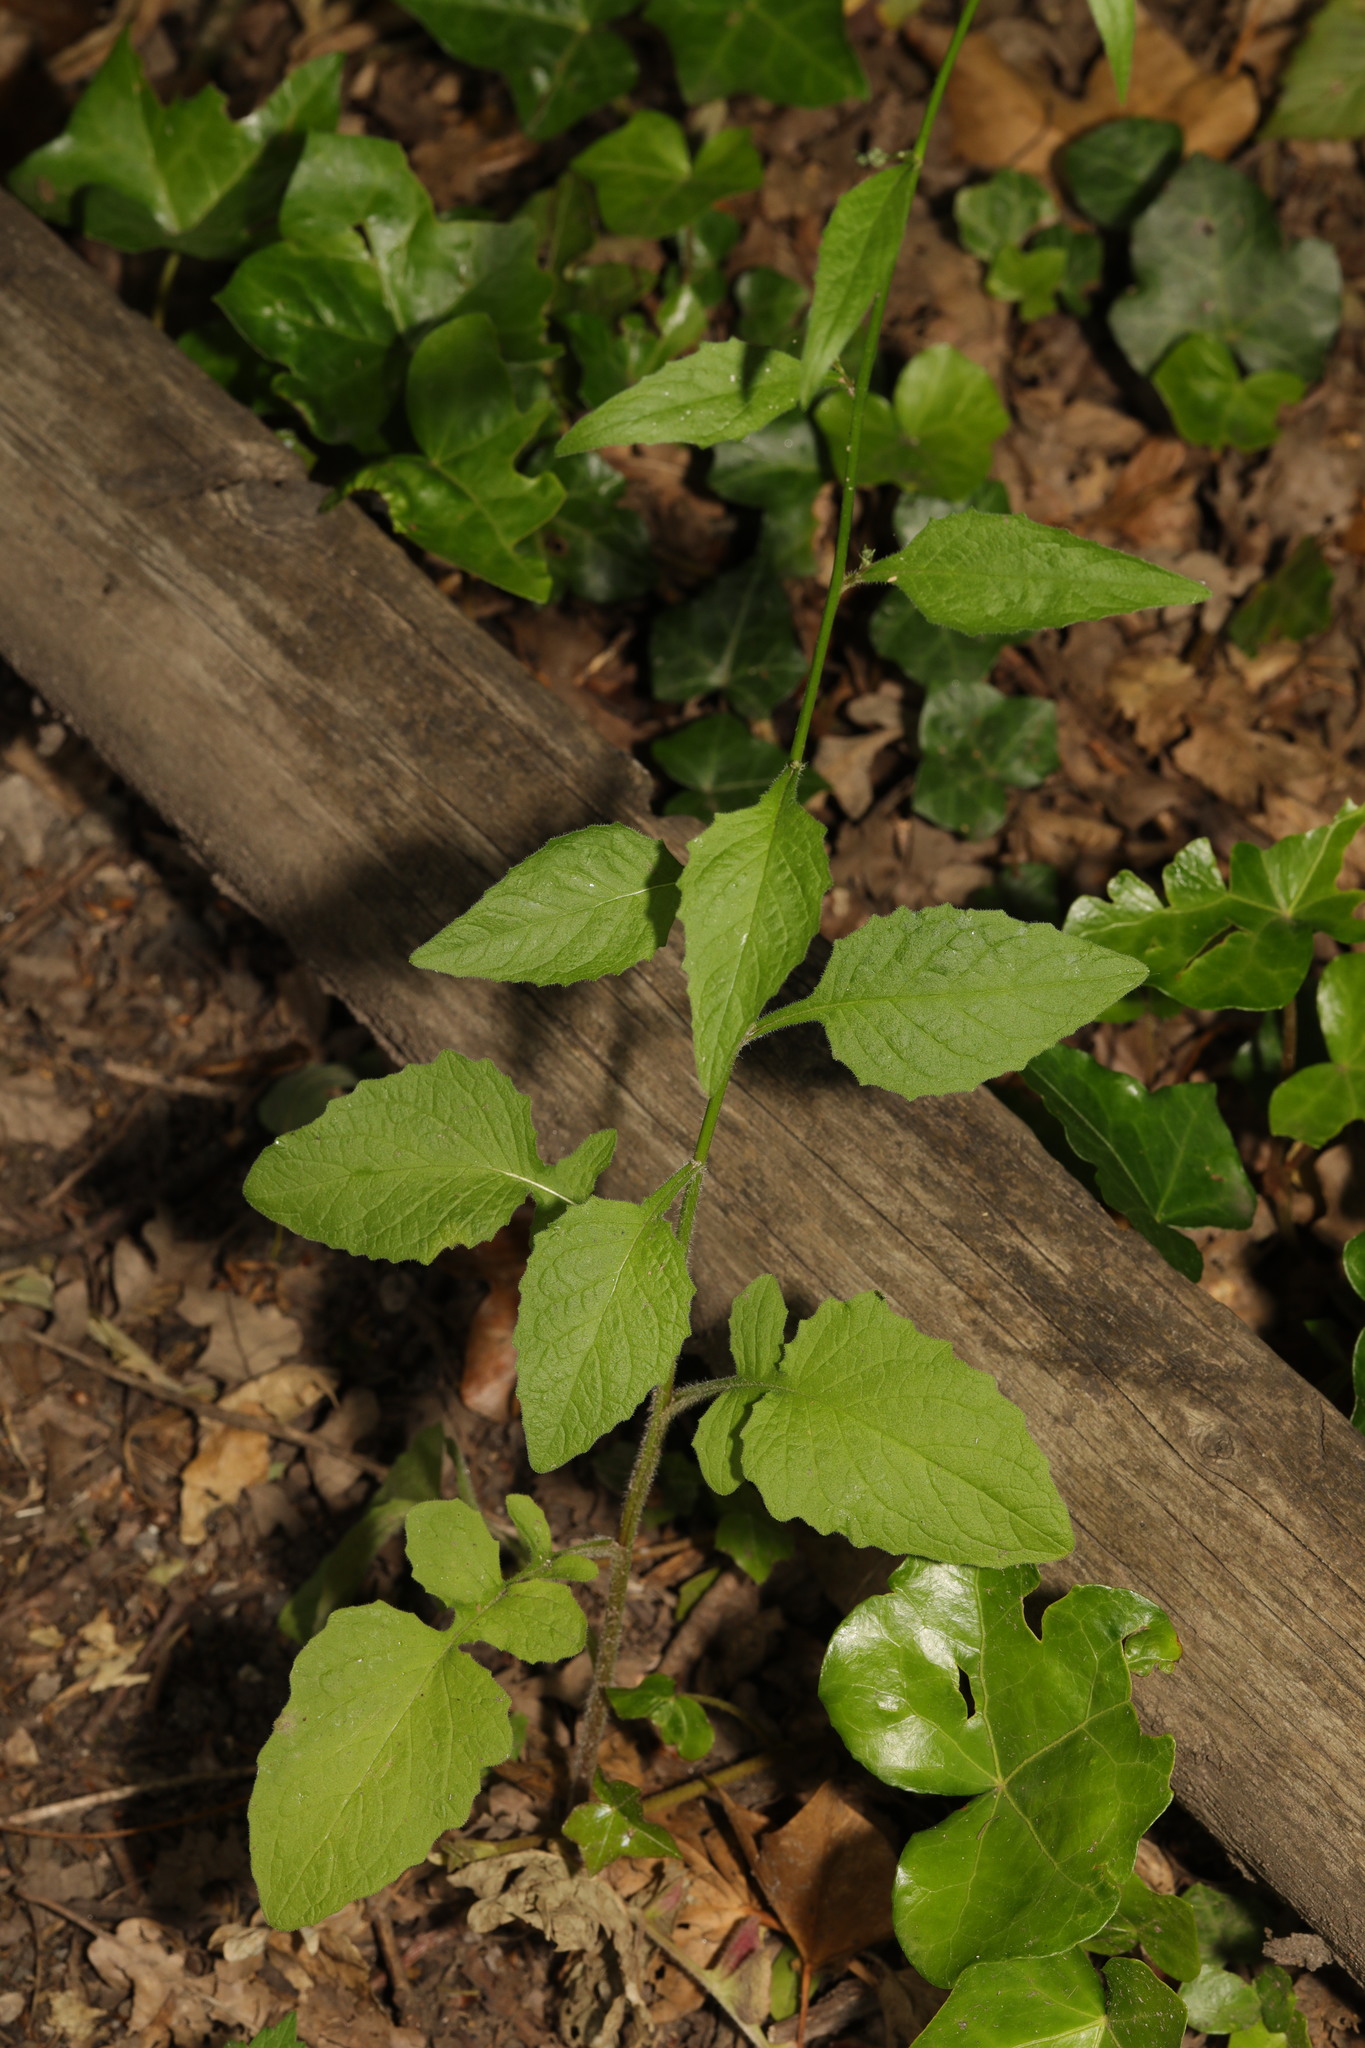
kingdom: Plantae
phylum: Tracheophyta
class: Magnoliopsida
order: Asterales
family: Asteraceae
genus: Lapsana
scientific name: Lapsana communis
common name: Nipplewort
